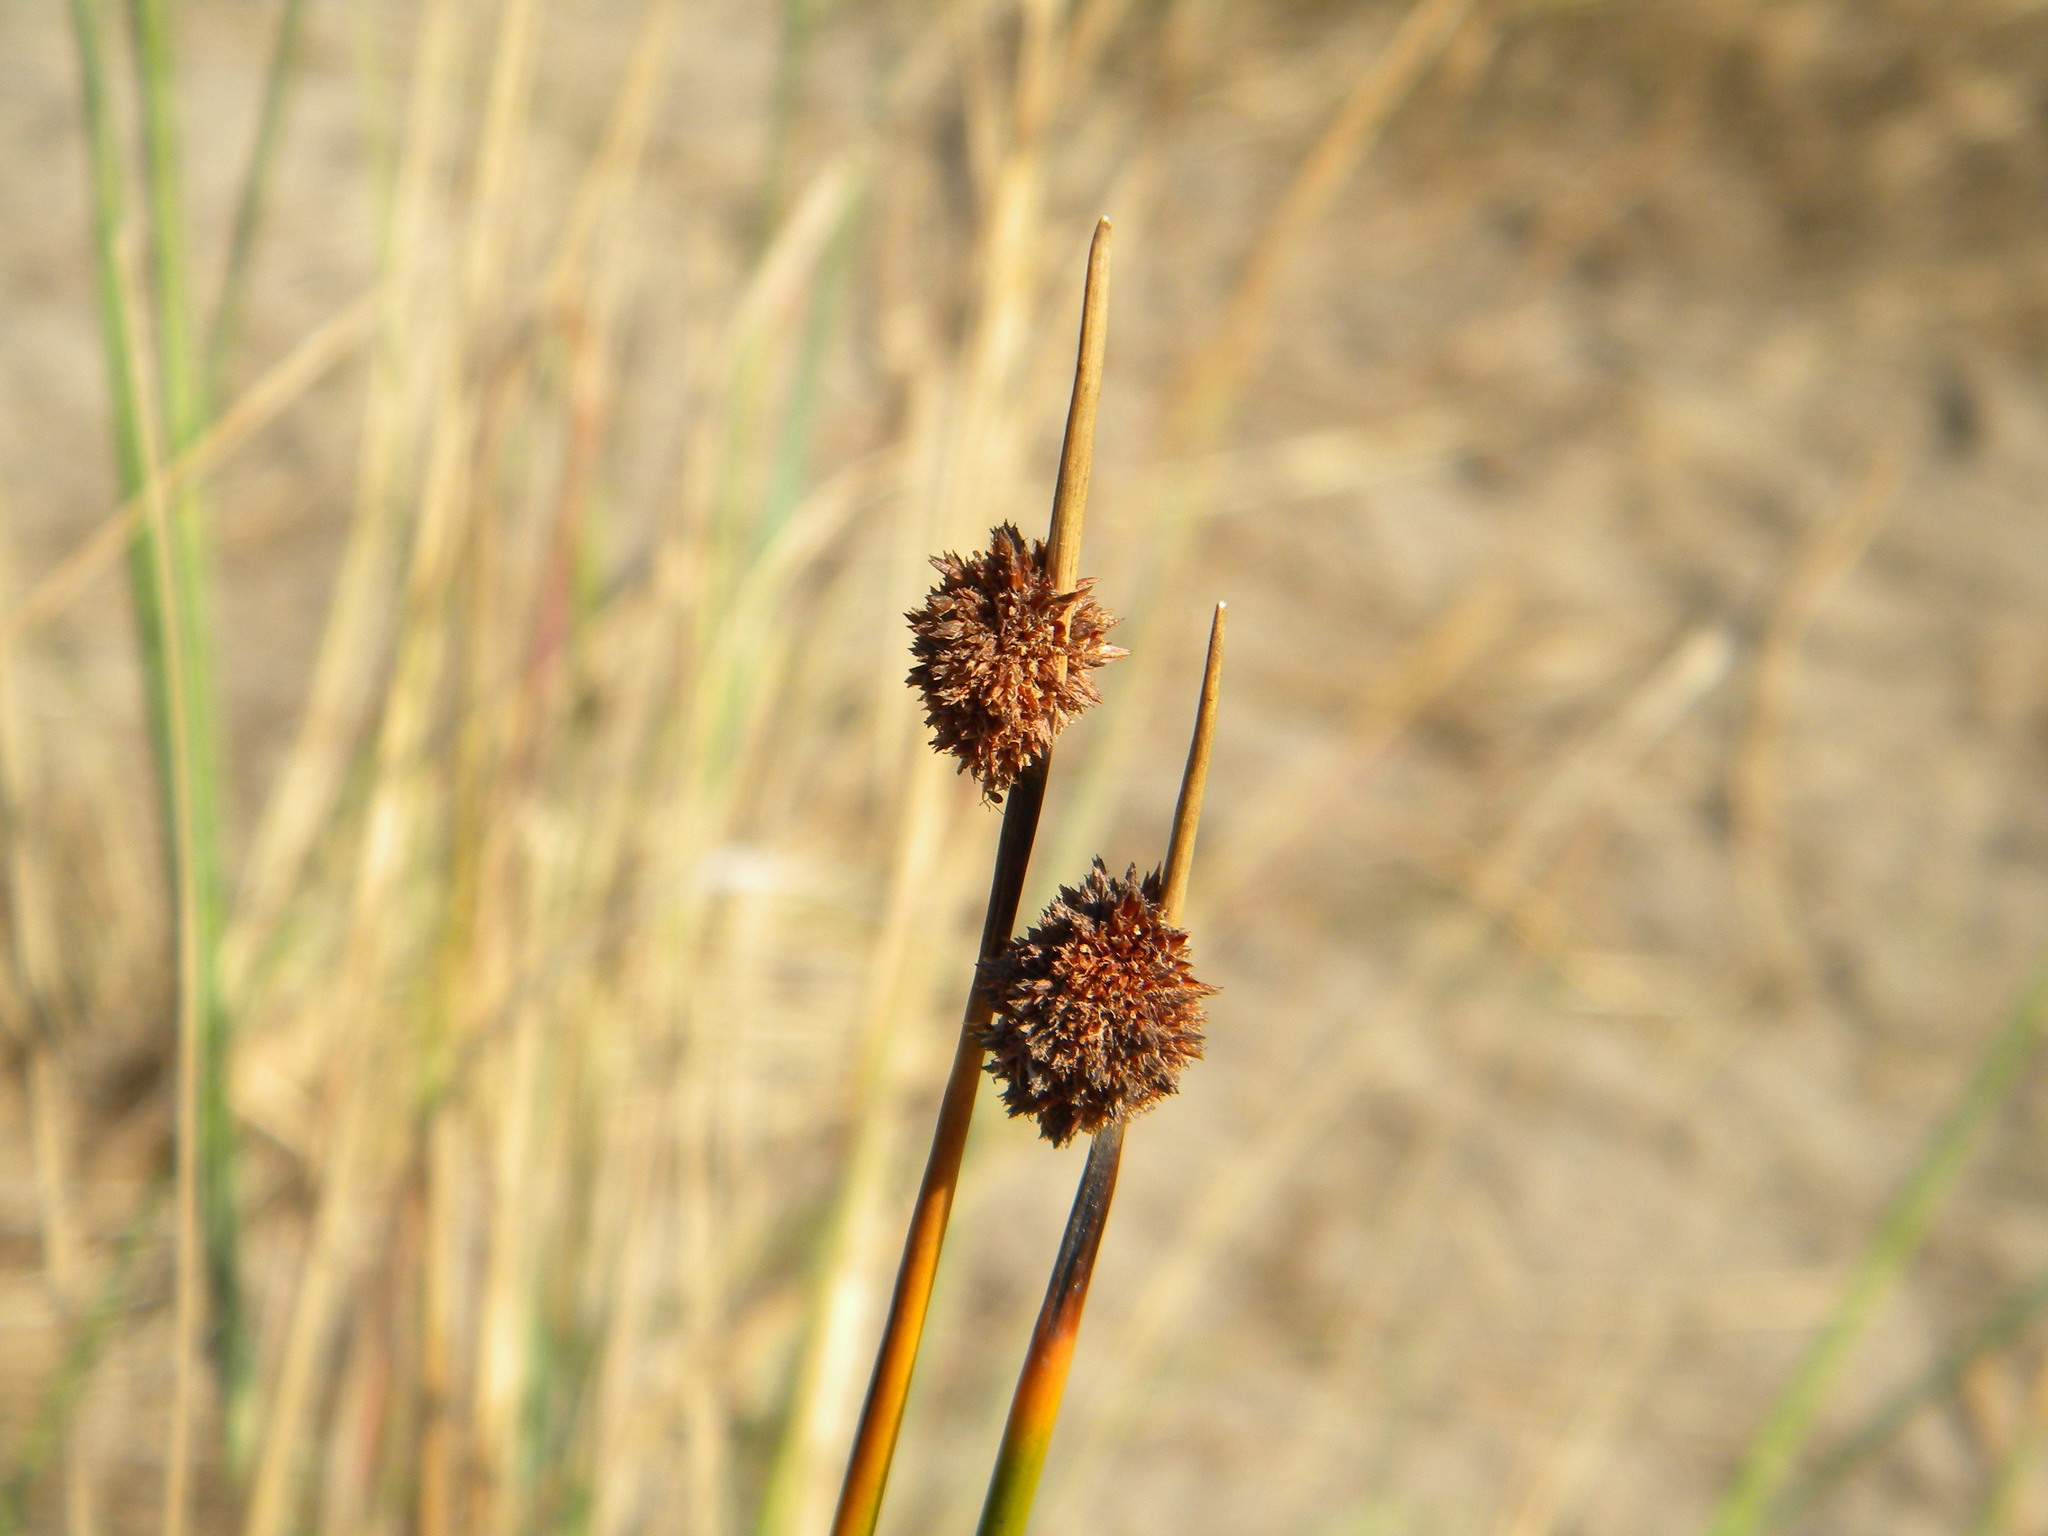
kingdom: Plantae
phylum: Tracheophyta
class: Liliopsida
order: Poales
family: Cyperaceae
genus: Ficinia
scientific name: Ficinia nodosa
